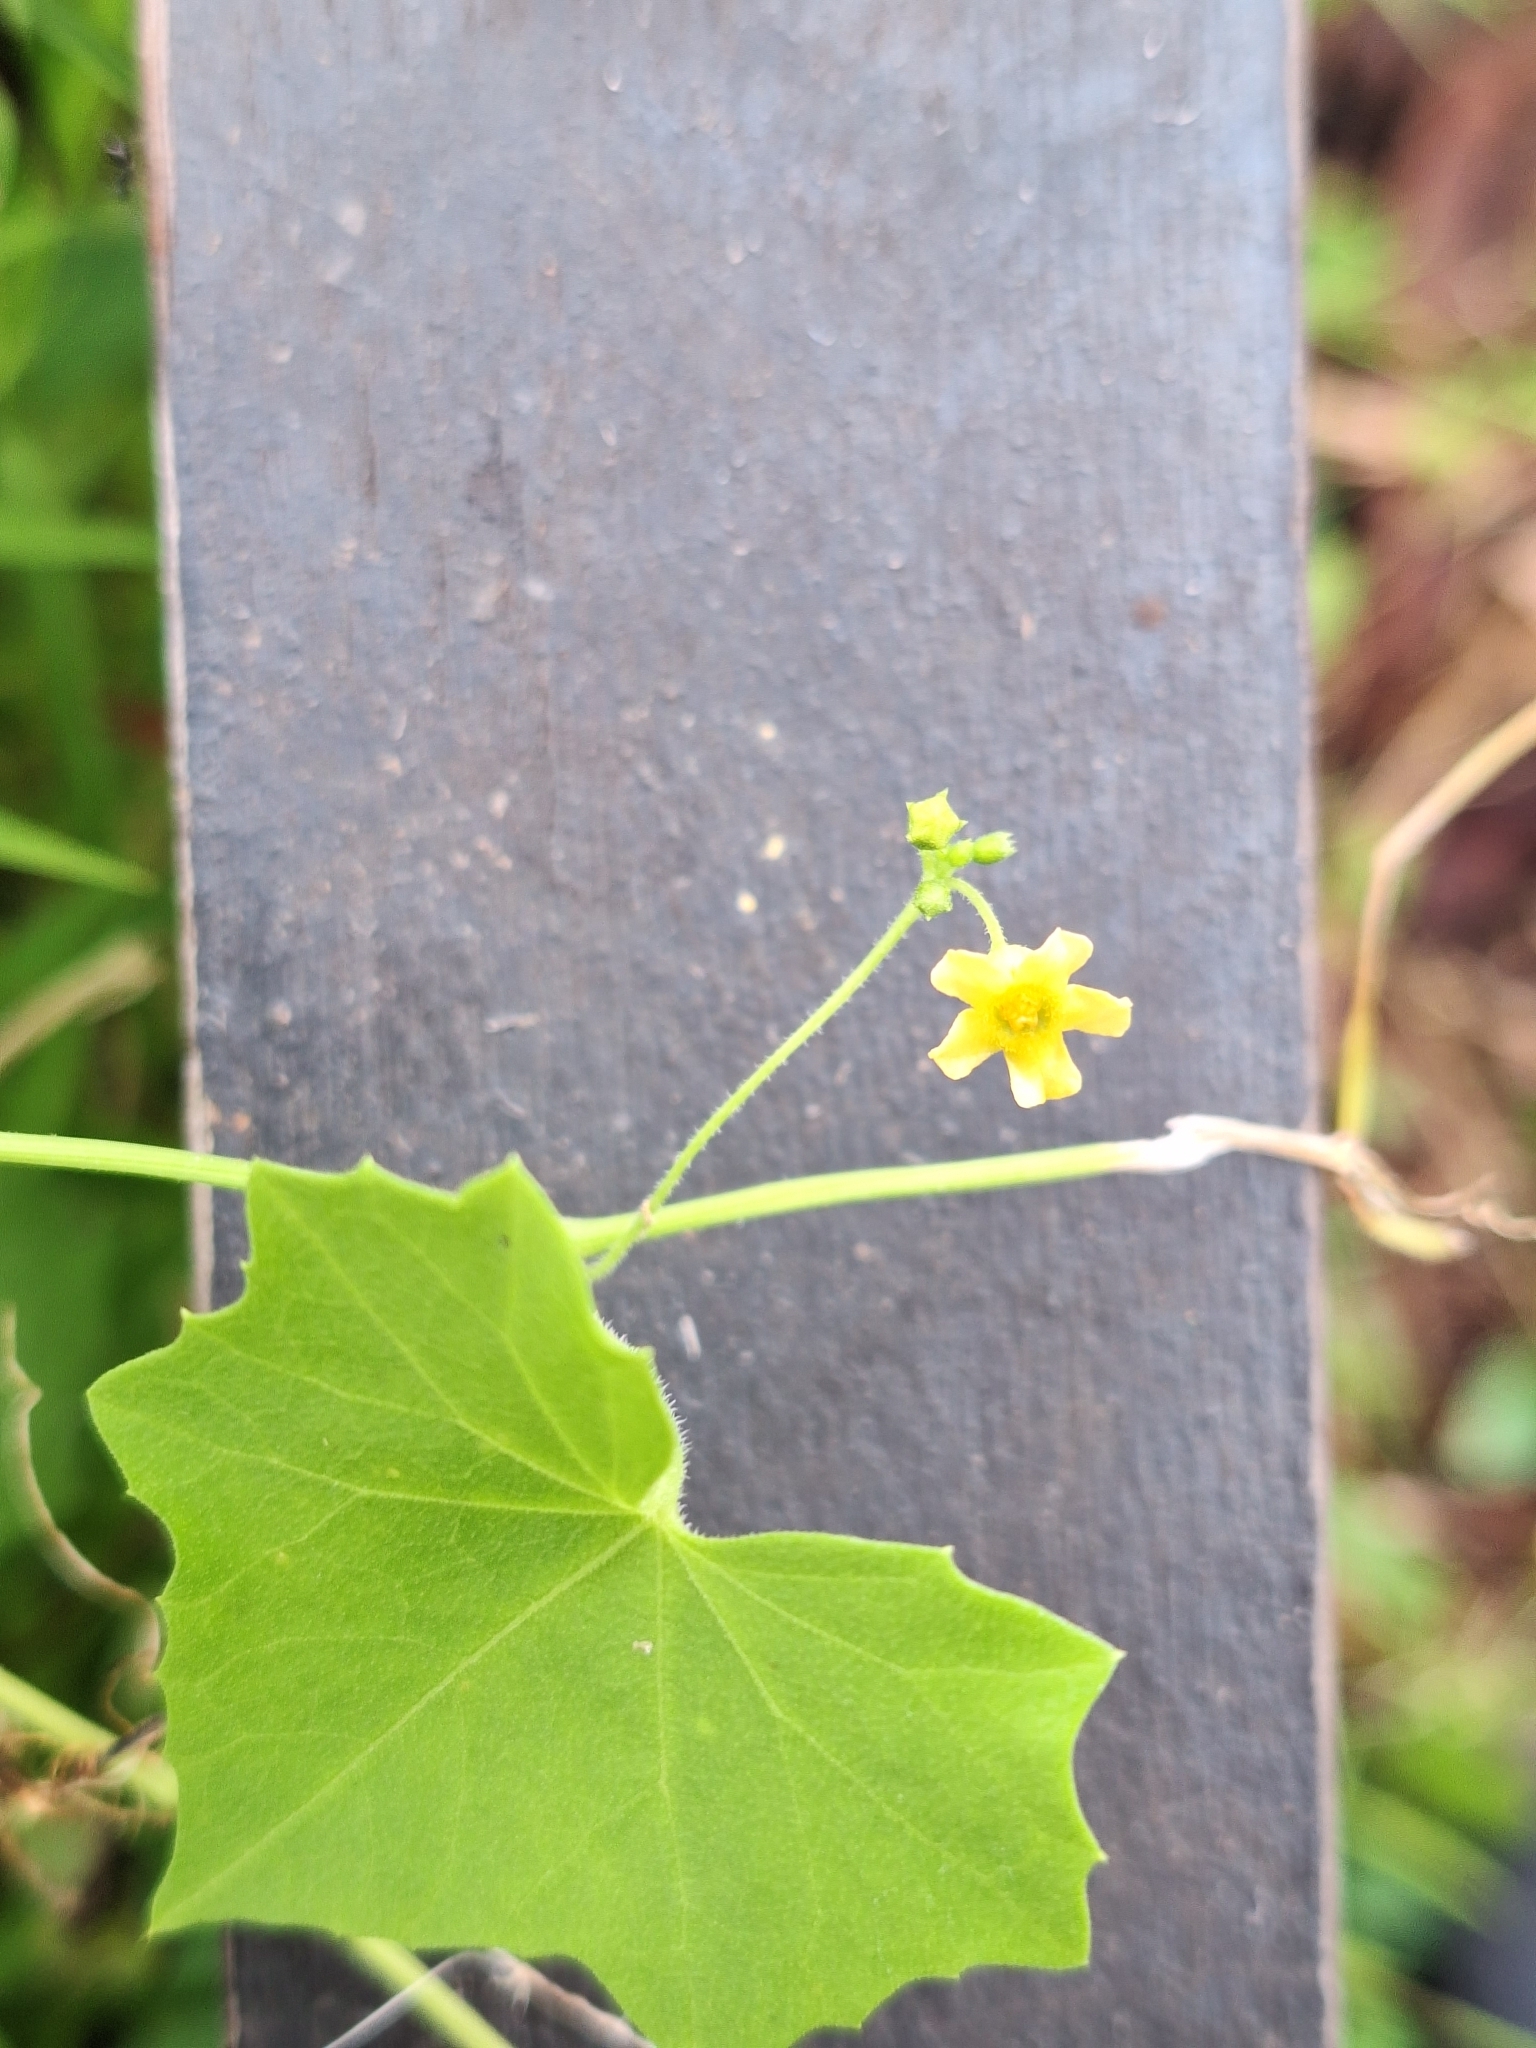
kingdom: Plantae
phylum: Tracheophyta
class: Magnoliopsida
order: Cucurbitales
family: Cucurbitaceae
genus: Melothria
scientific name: Melothria pendula
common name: Creeping-cucumber
